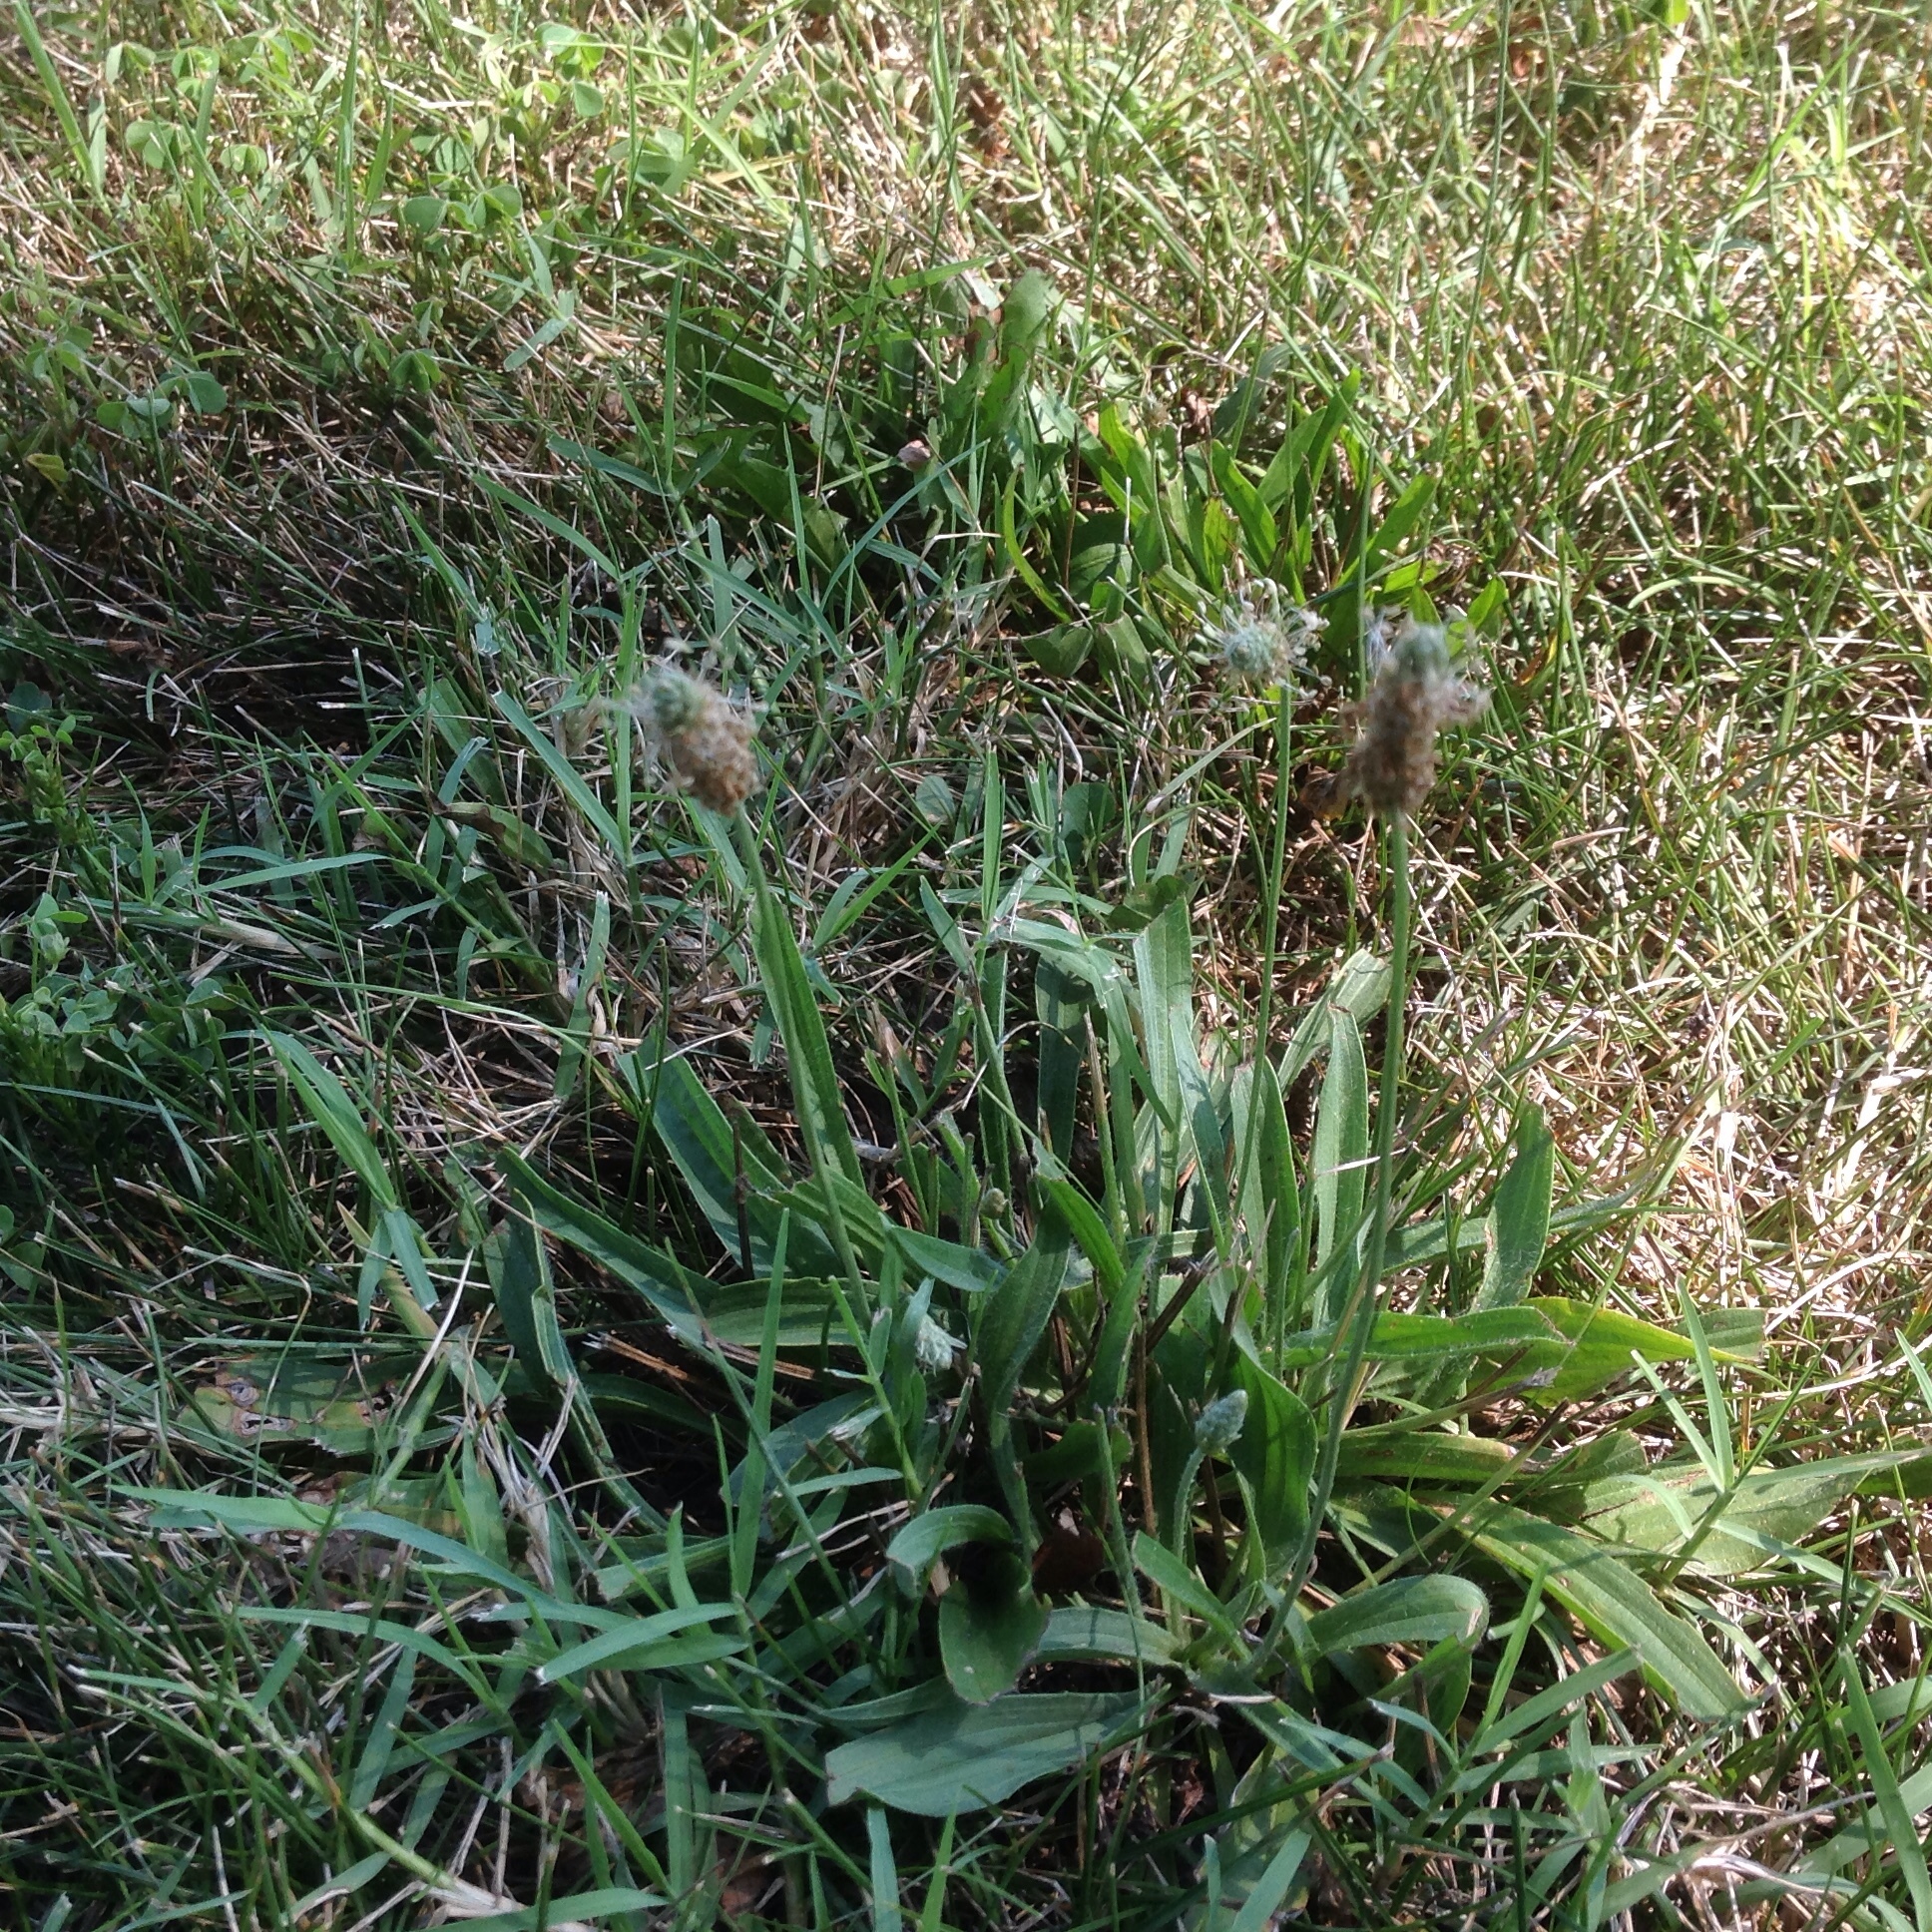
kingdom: Plantae
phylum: Tracheophyta
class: Magnoliopsida
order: Lamiales
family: Plantaginaceae
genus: Plantago
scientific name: Plantago lanceolata
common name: Ribwort plantain
